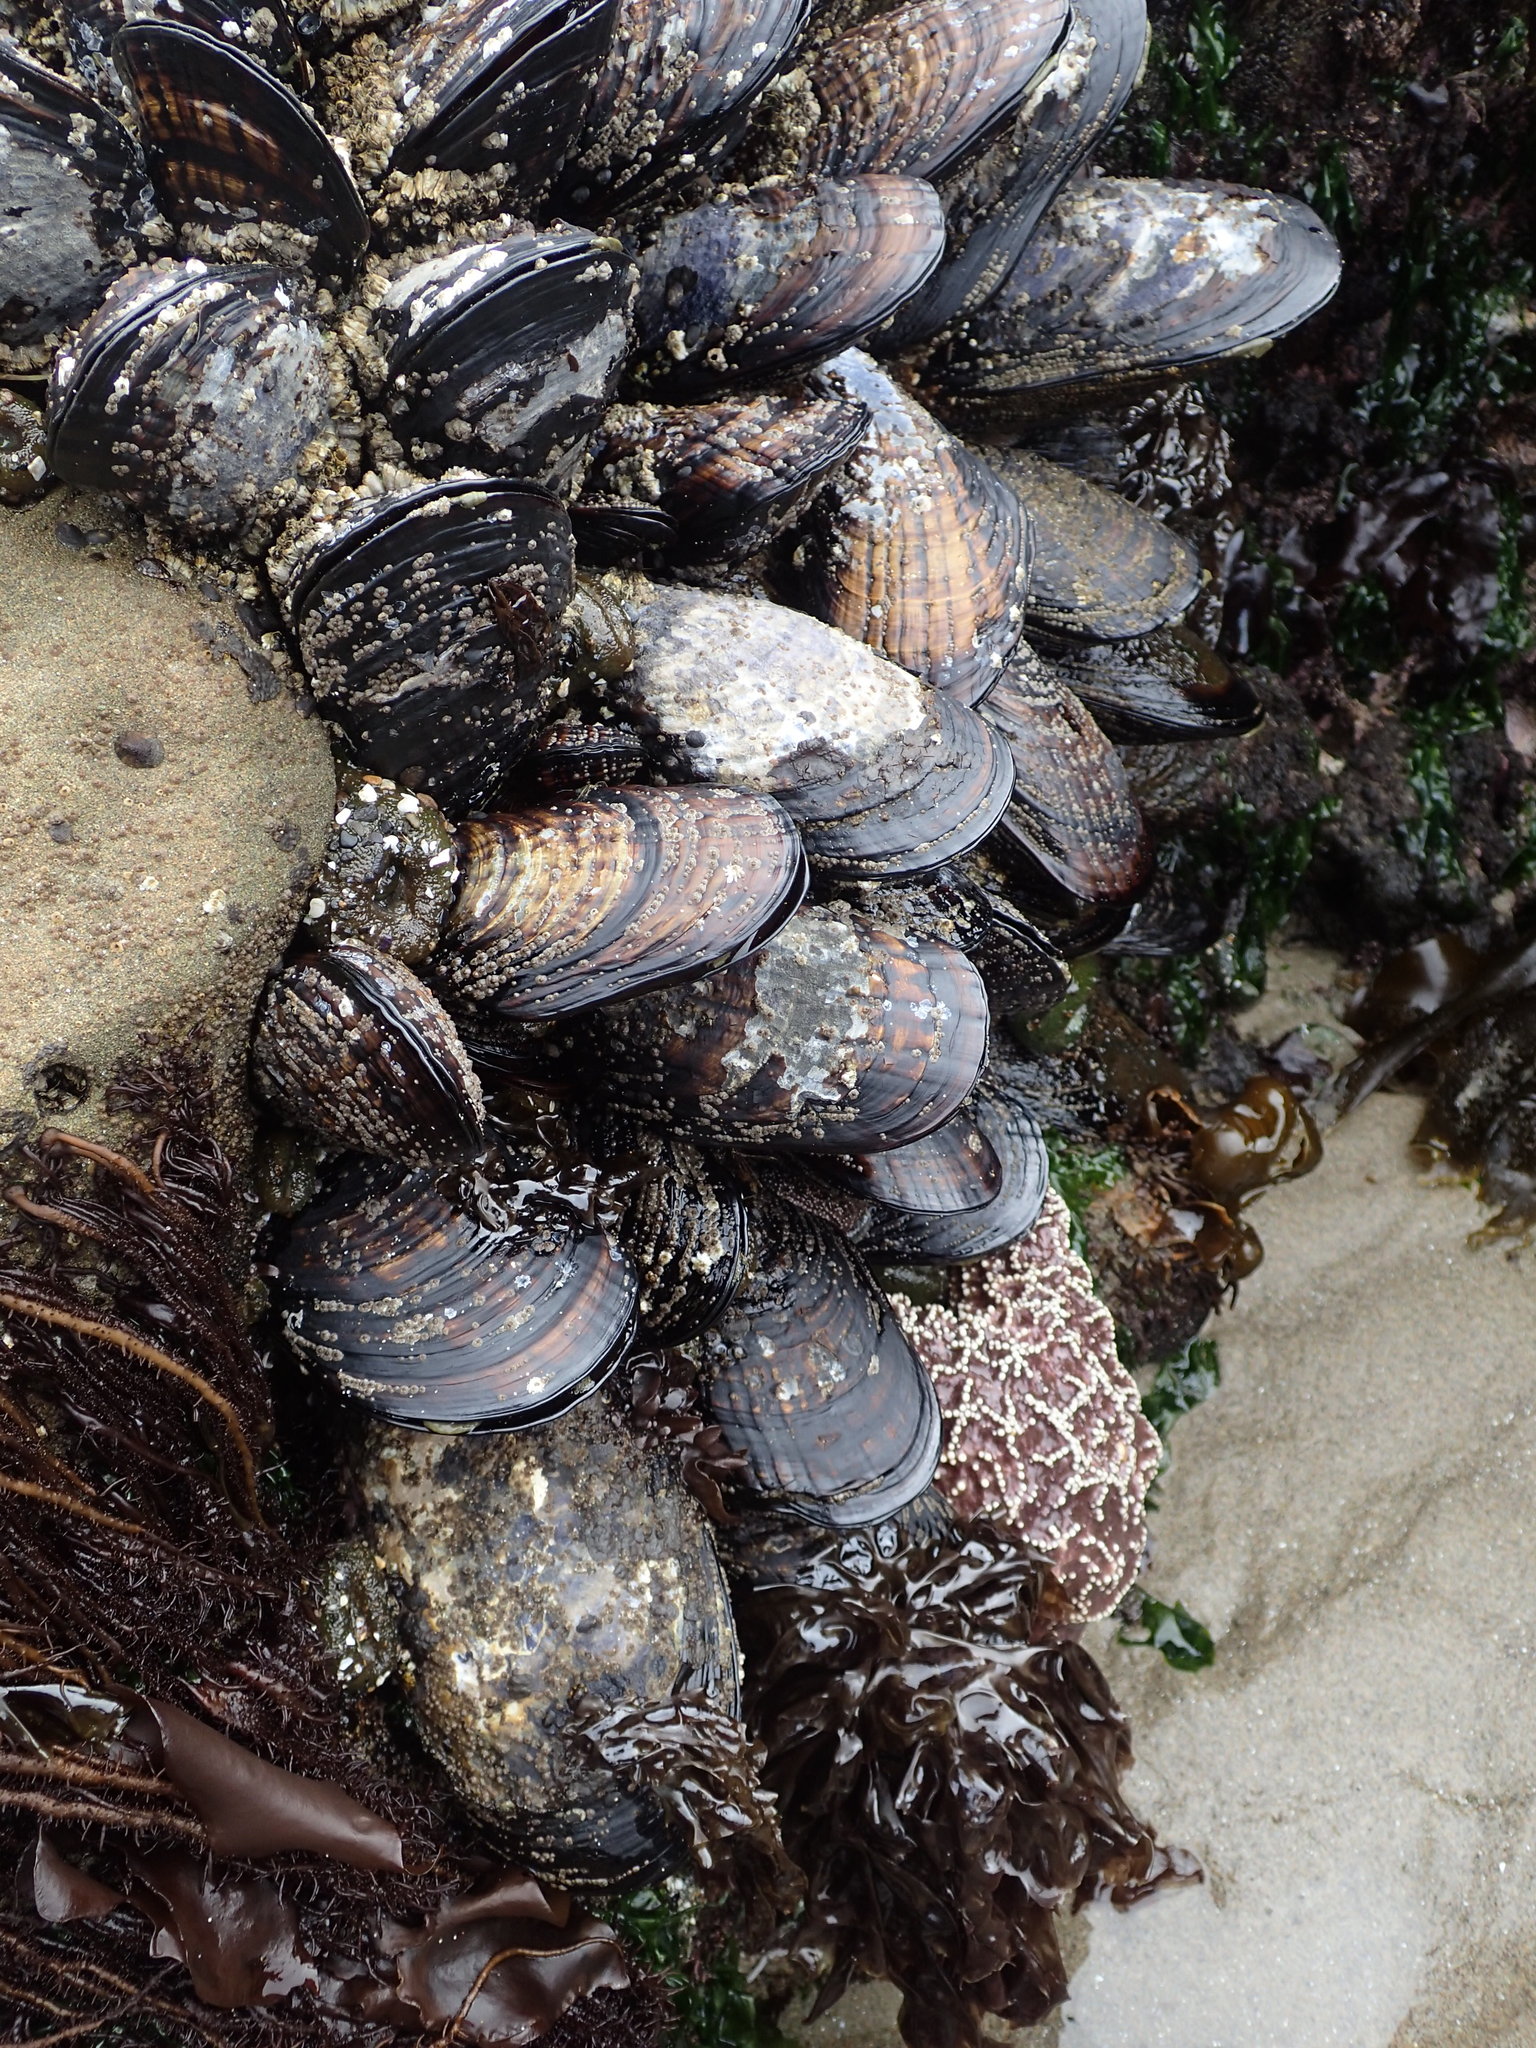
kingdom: Animalia
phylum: Mollusca
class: Bivalvia
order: Mytilida
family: Mytilidae
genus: Mytilus
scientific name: Mytilus californianus
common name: California mussel
